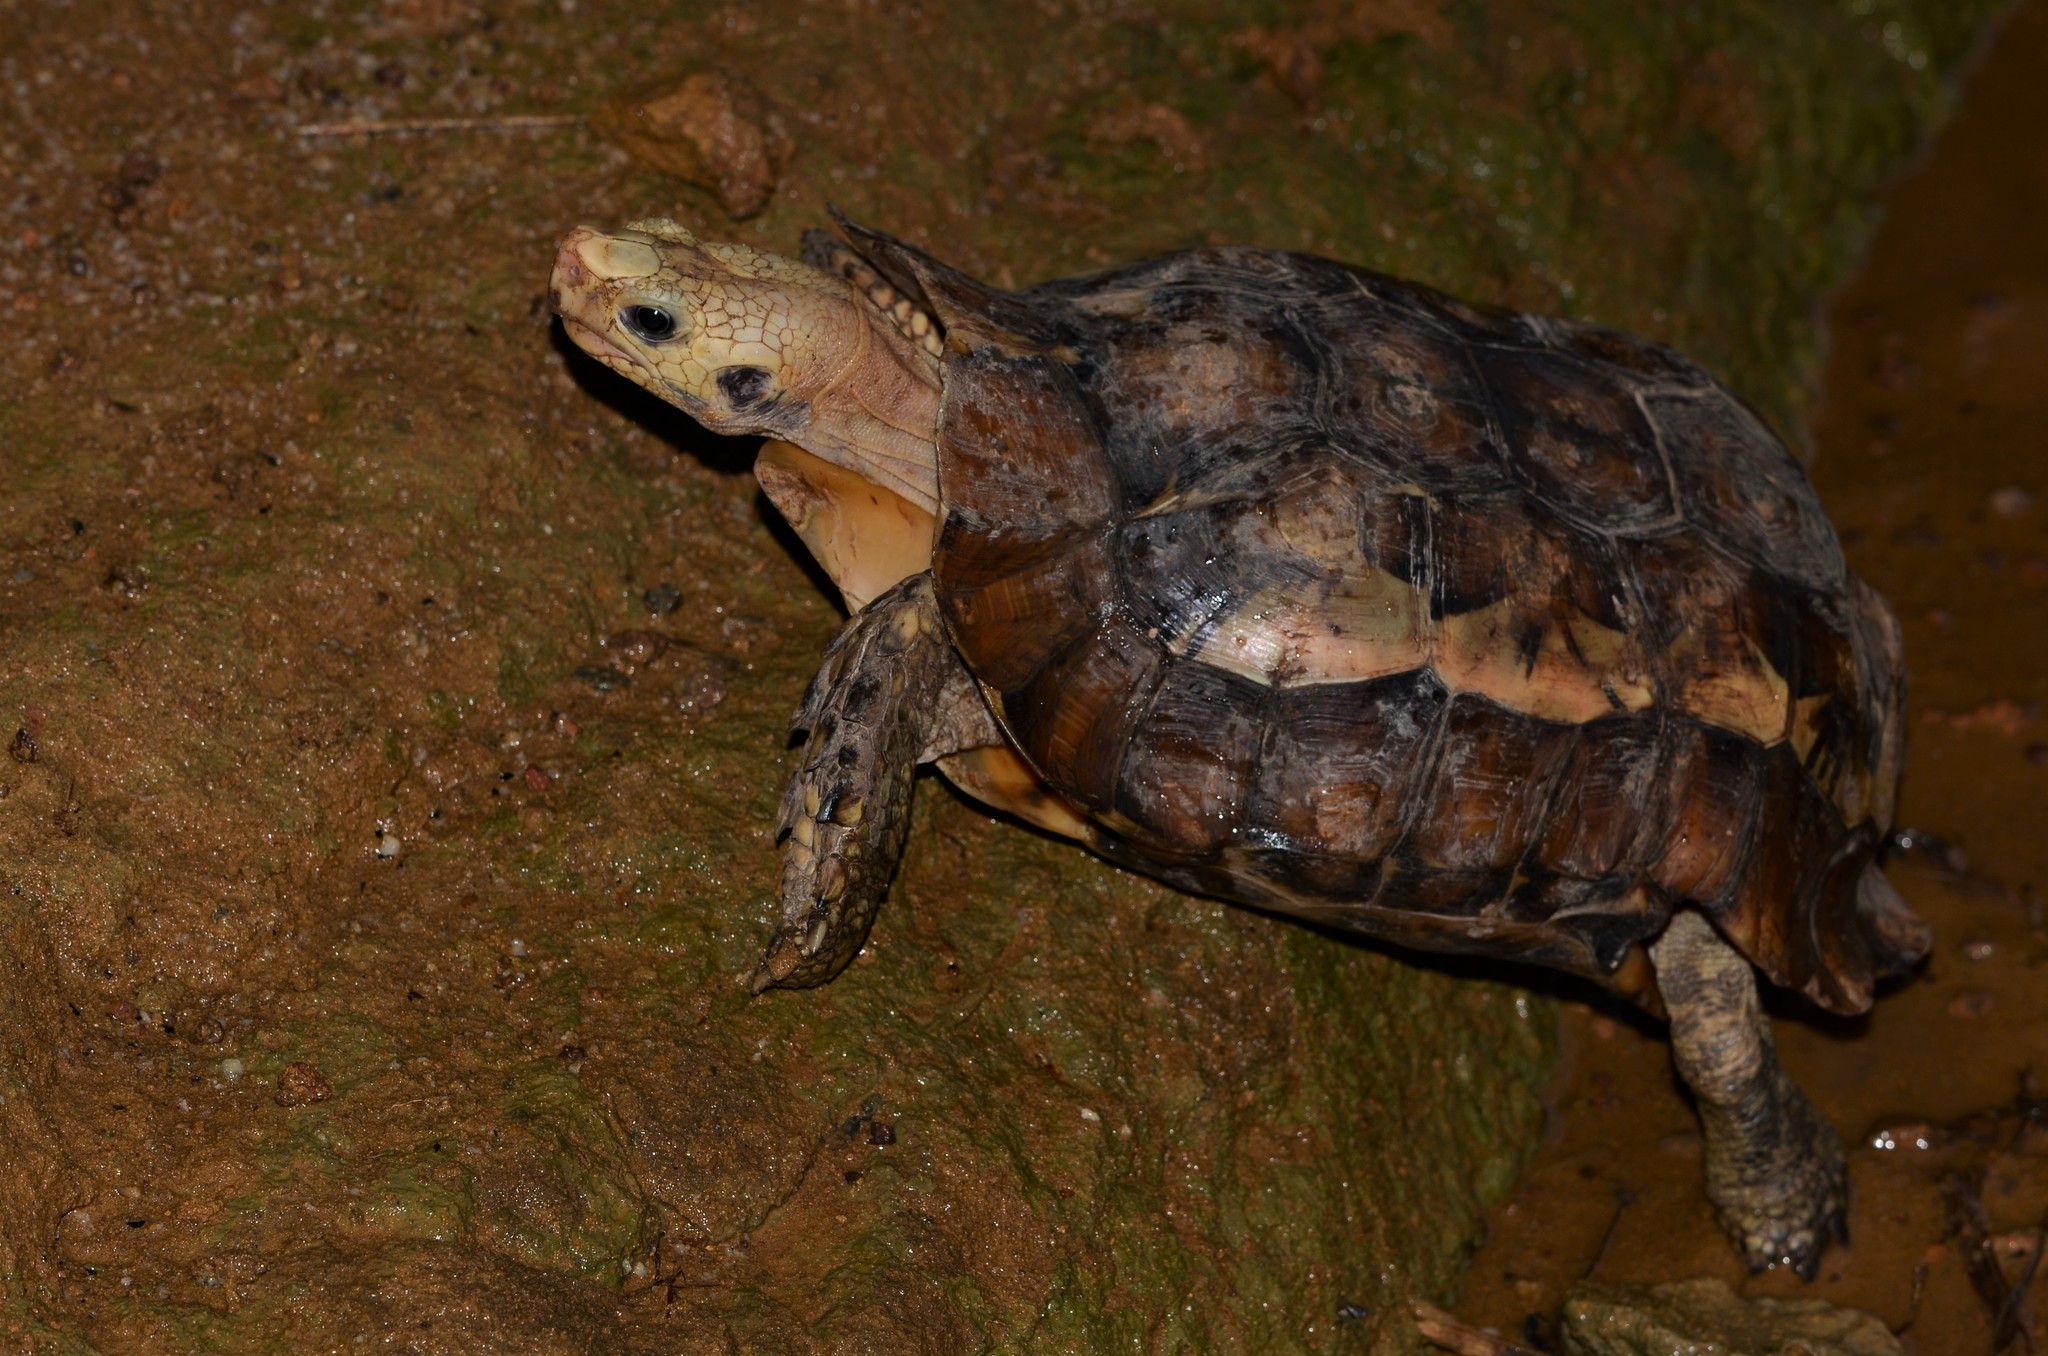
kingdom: Animalia
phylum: Chordata
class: Testudines
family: Testudinidae
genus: Kinixys
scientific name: Kinixys erosa
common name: Serrated hinge-back tortoise
